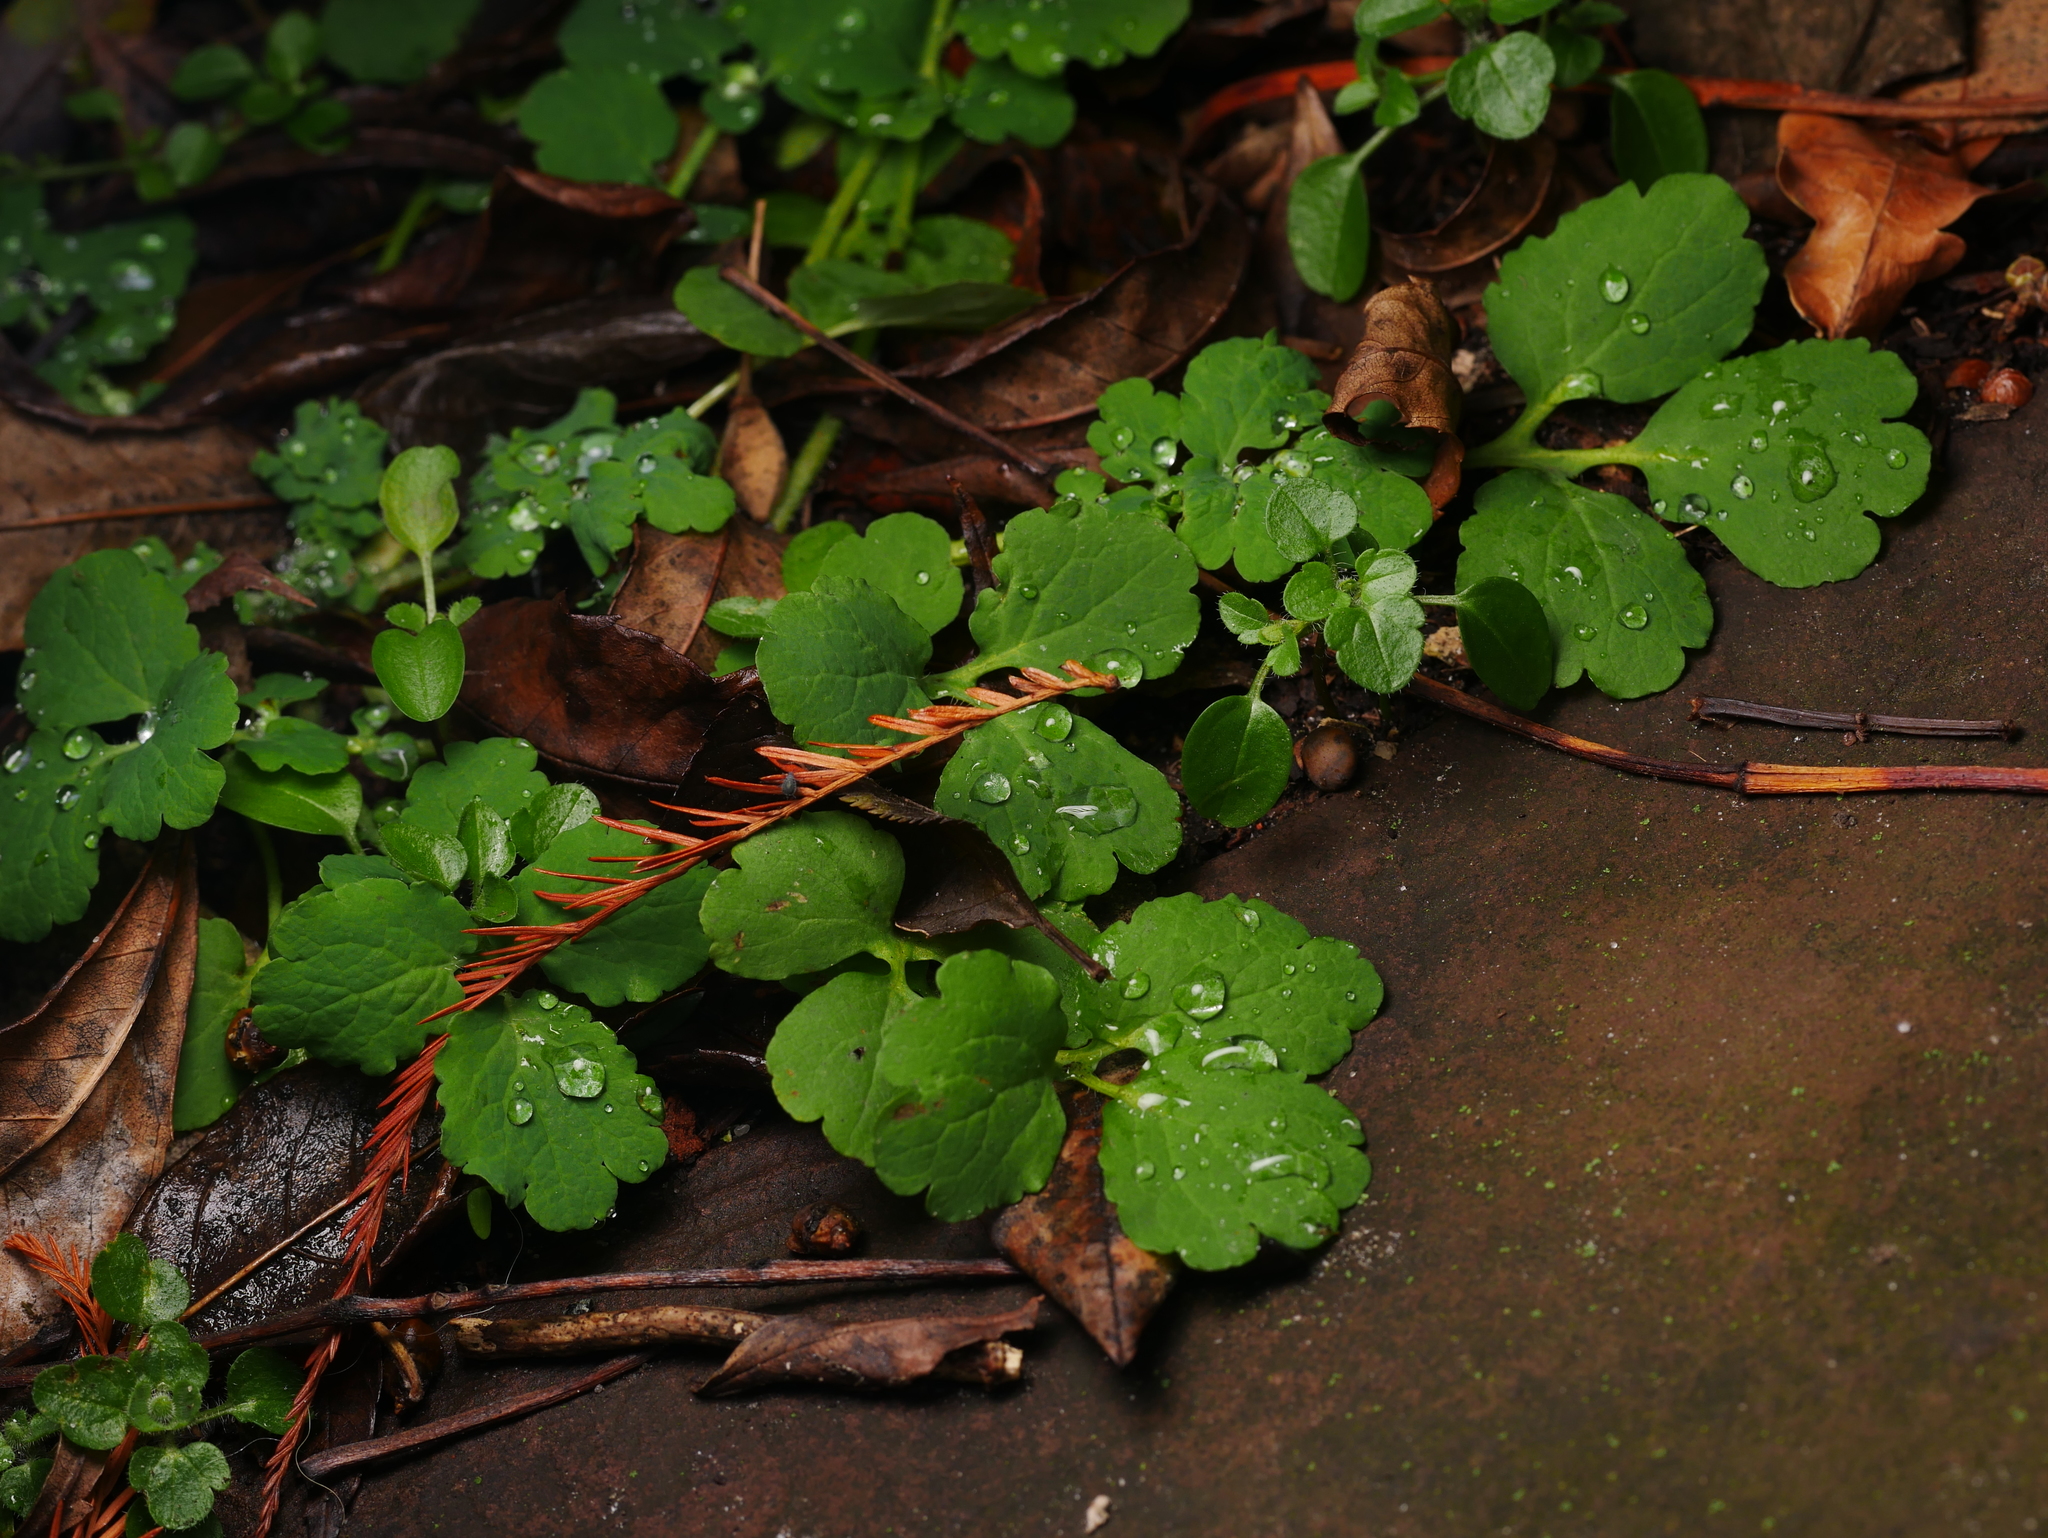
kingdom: Plantae
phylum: Tracheophyta
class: Magnoliopsida
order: Ranunculales
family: Papaveraceae
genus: Chelidonium
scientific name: Chelidonium majus
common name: Greater celandine
